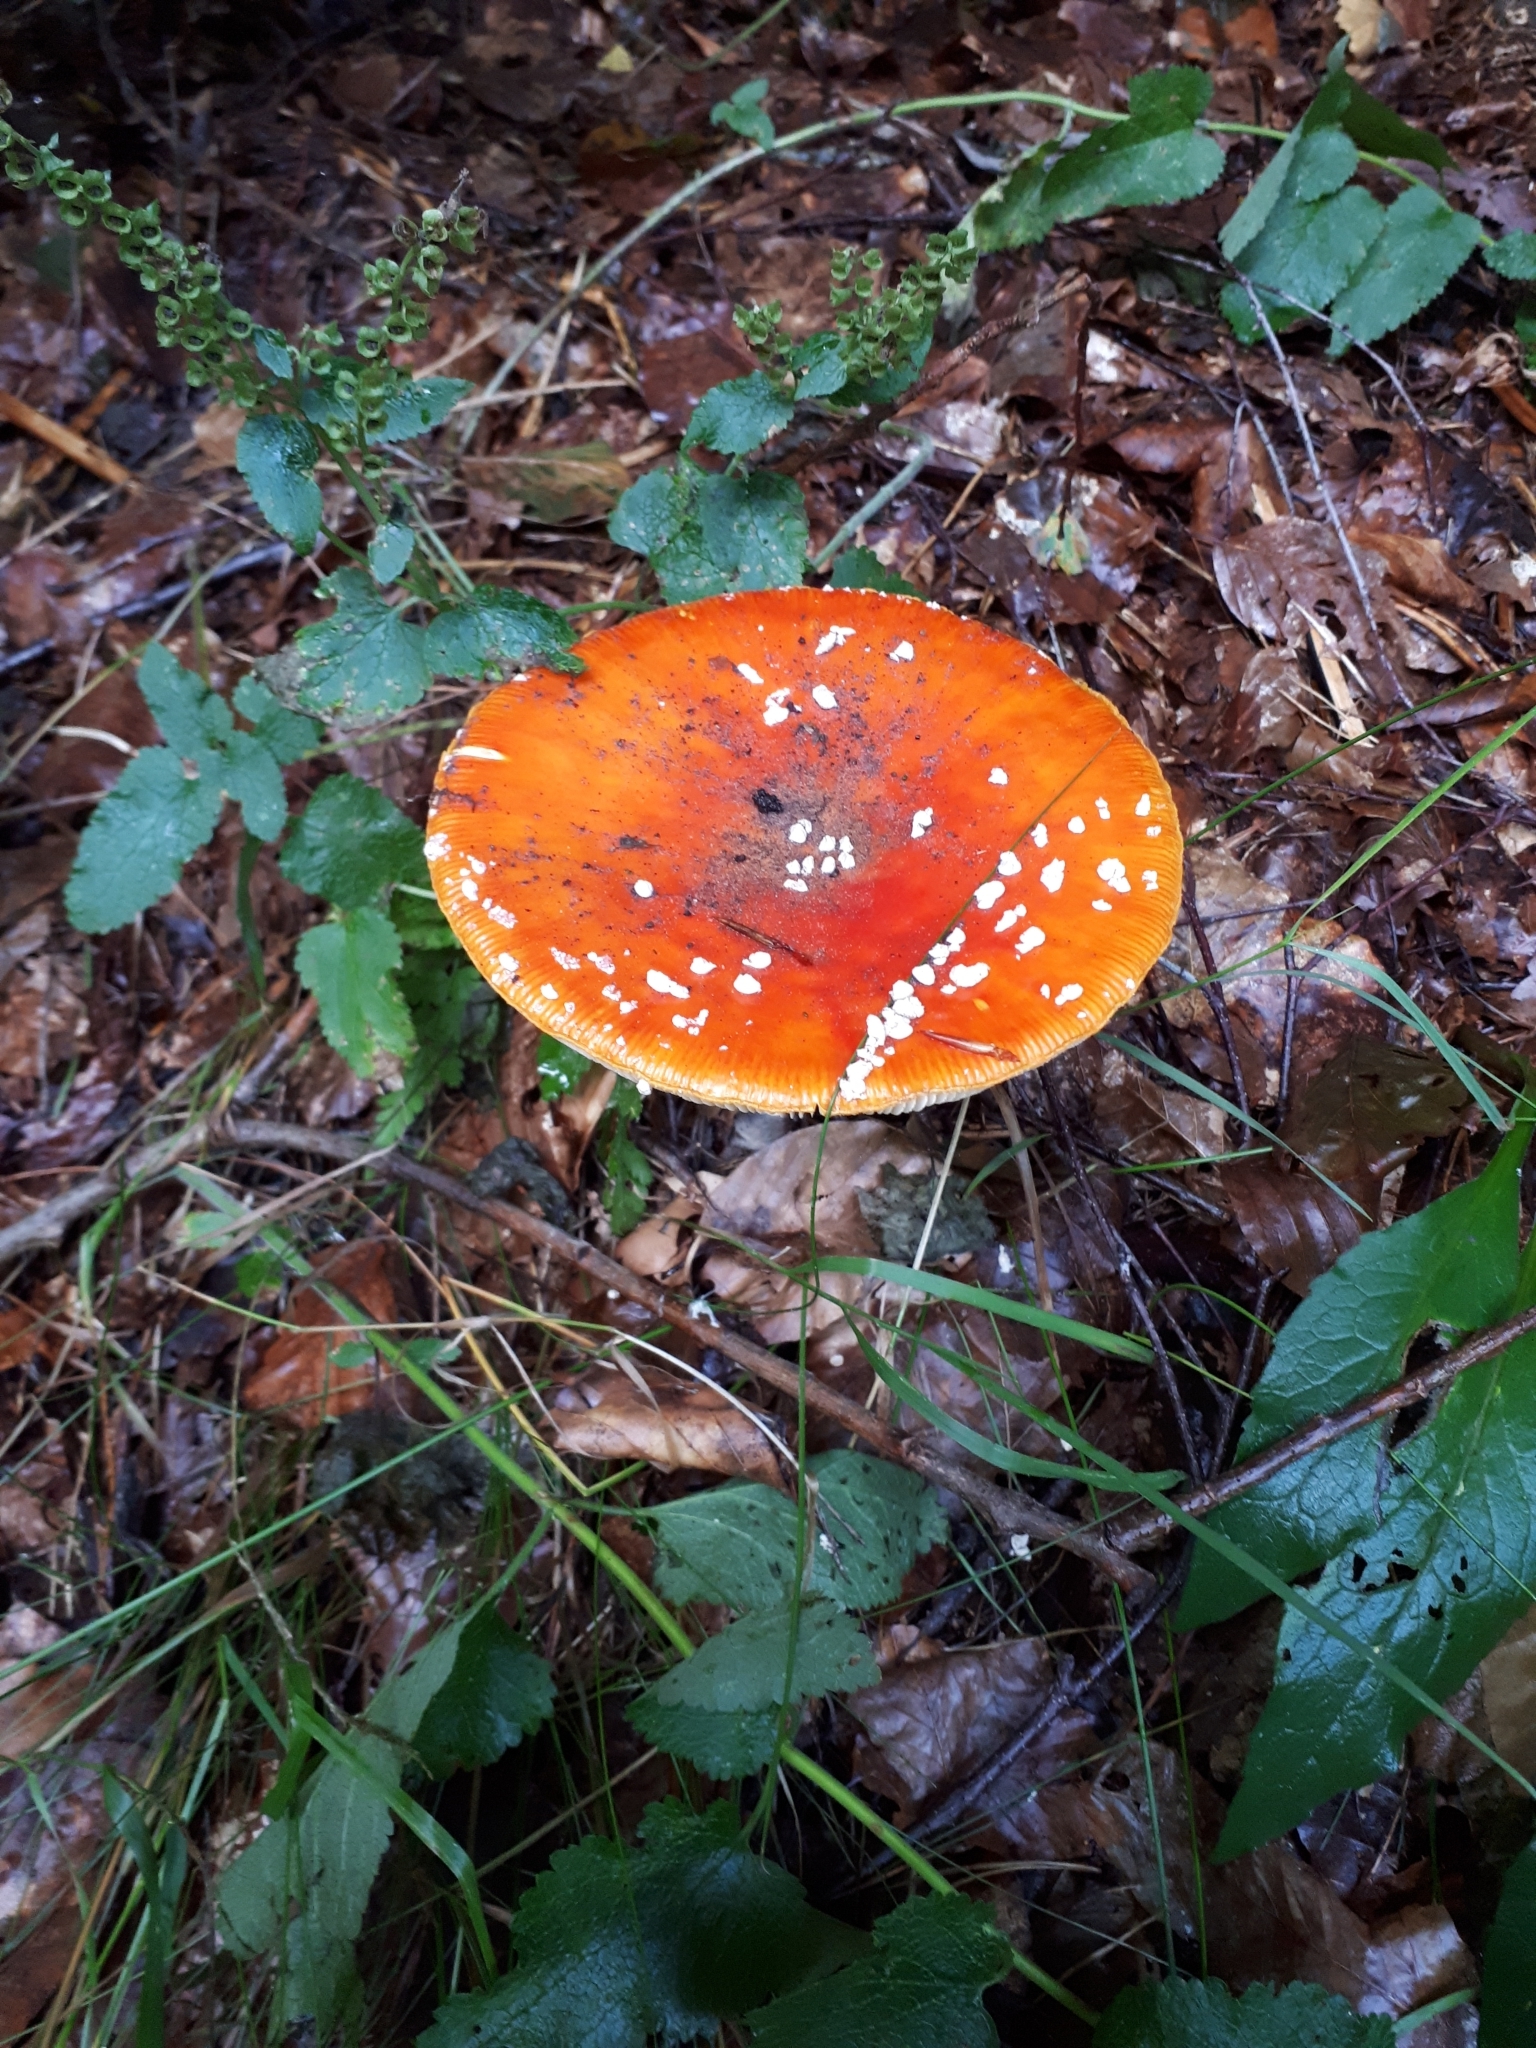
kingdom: Fungi
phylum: Basidiomycota
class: Agaricomycetes
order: Agaricales
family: Amanitaceae
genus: Amanita
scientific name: Amanita muscaria
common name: Fly agaric
